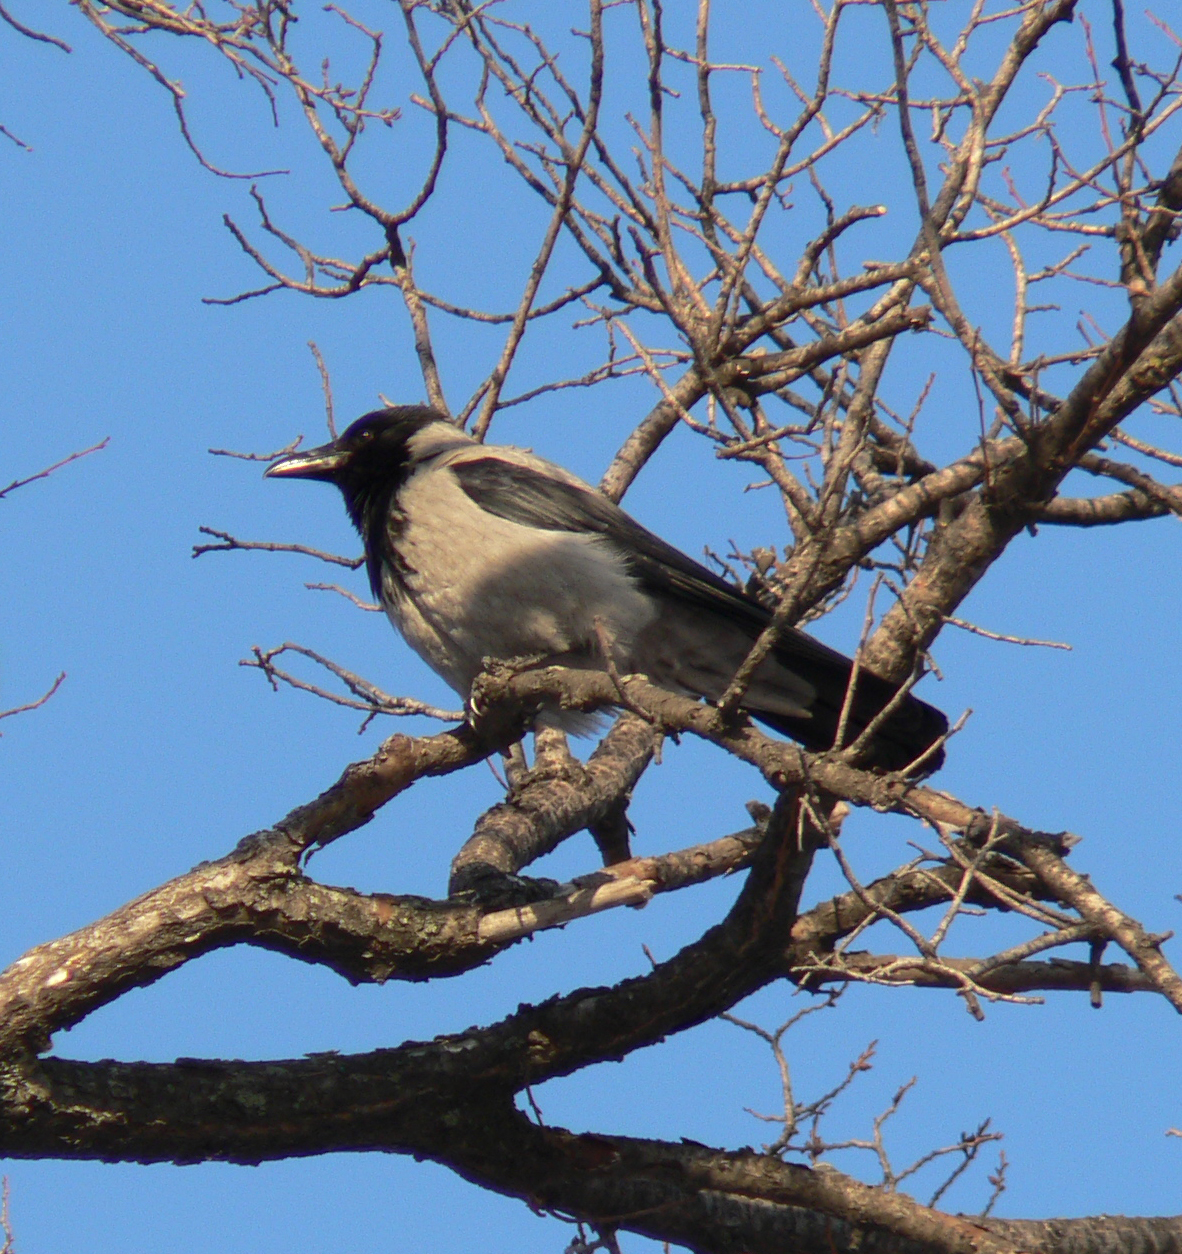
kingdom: Animalia
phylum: Chordata
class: Aves
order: Passeriformes
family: Corvidae
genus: Corvus
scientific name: Corvus cornix
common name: Hooded crow
